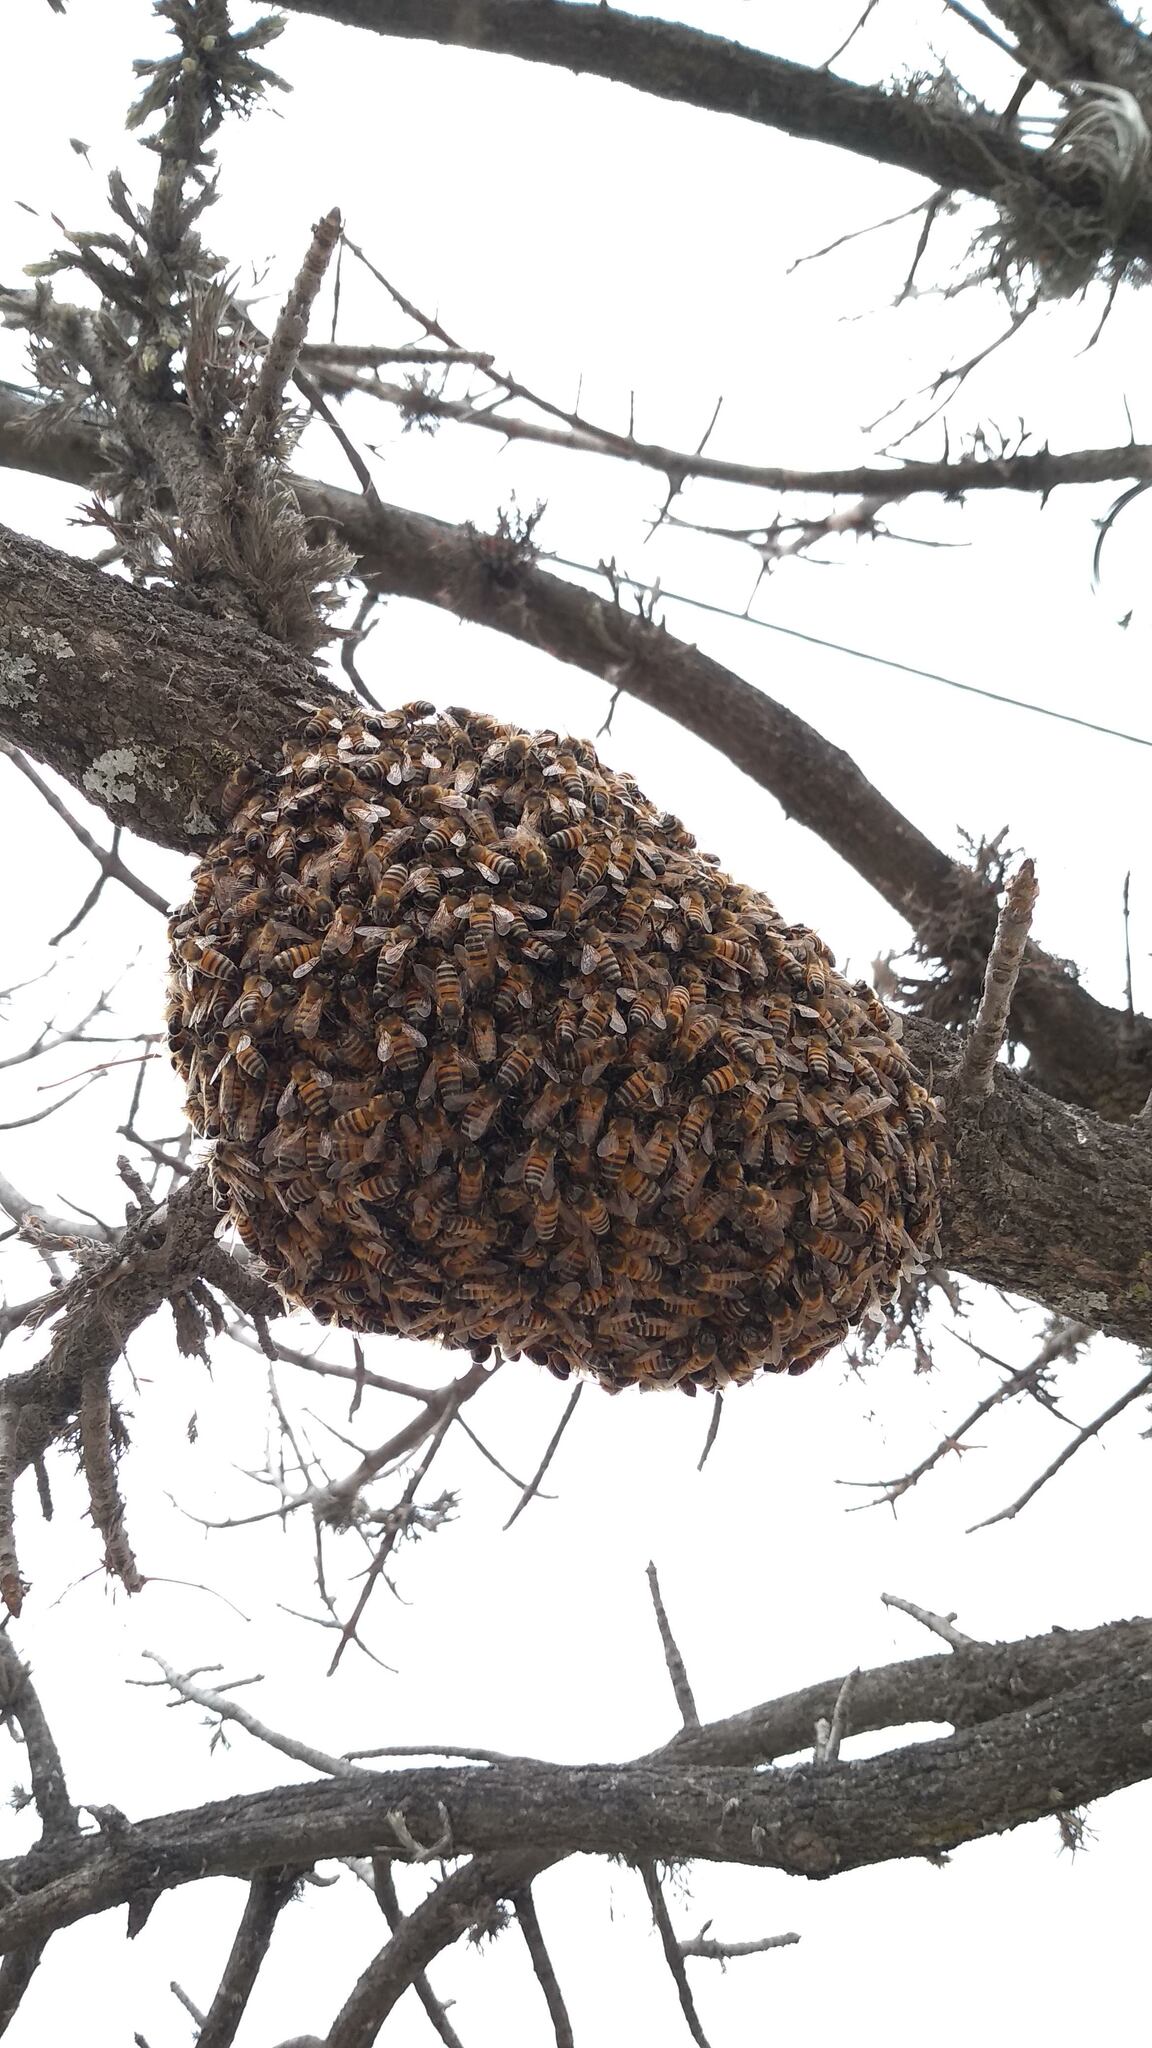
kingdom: Animalia
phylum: Arthropoda
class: Insecta
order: Hymenoptera
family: Apidae
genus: Apis
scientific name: Apis mellifera
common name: Honey bee
